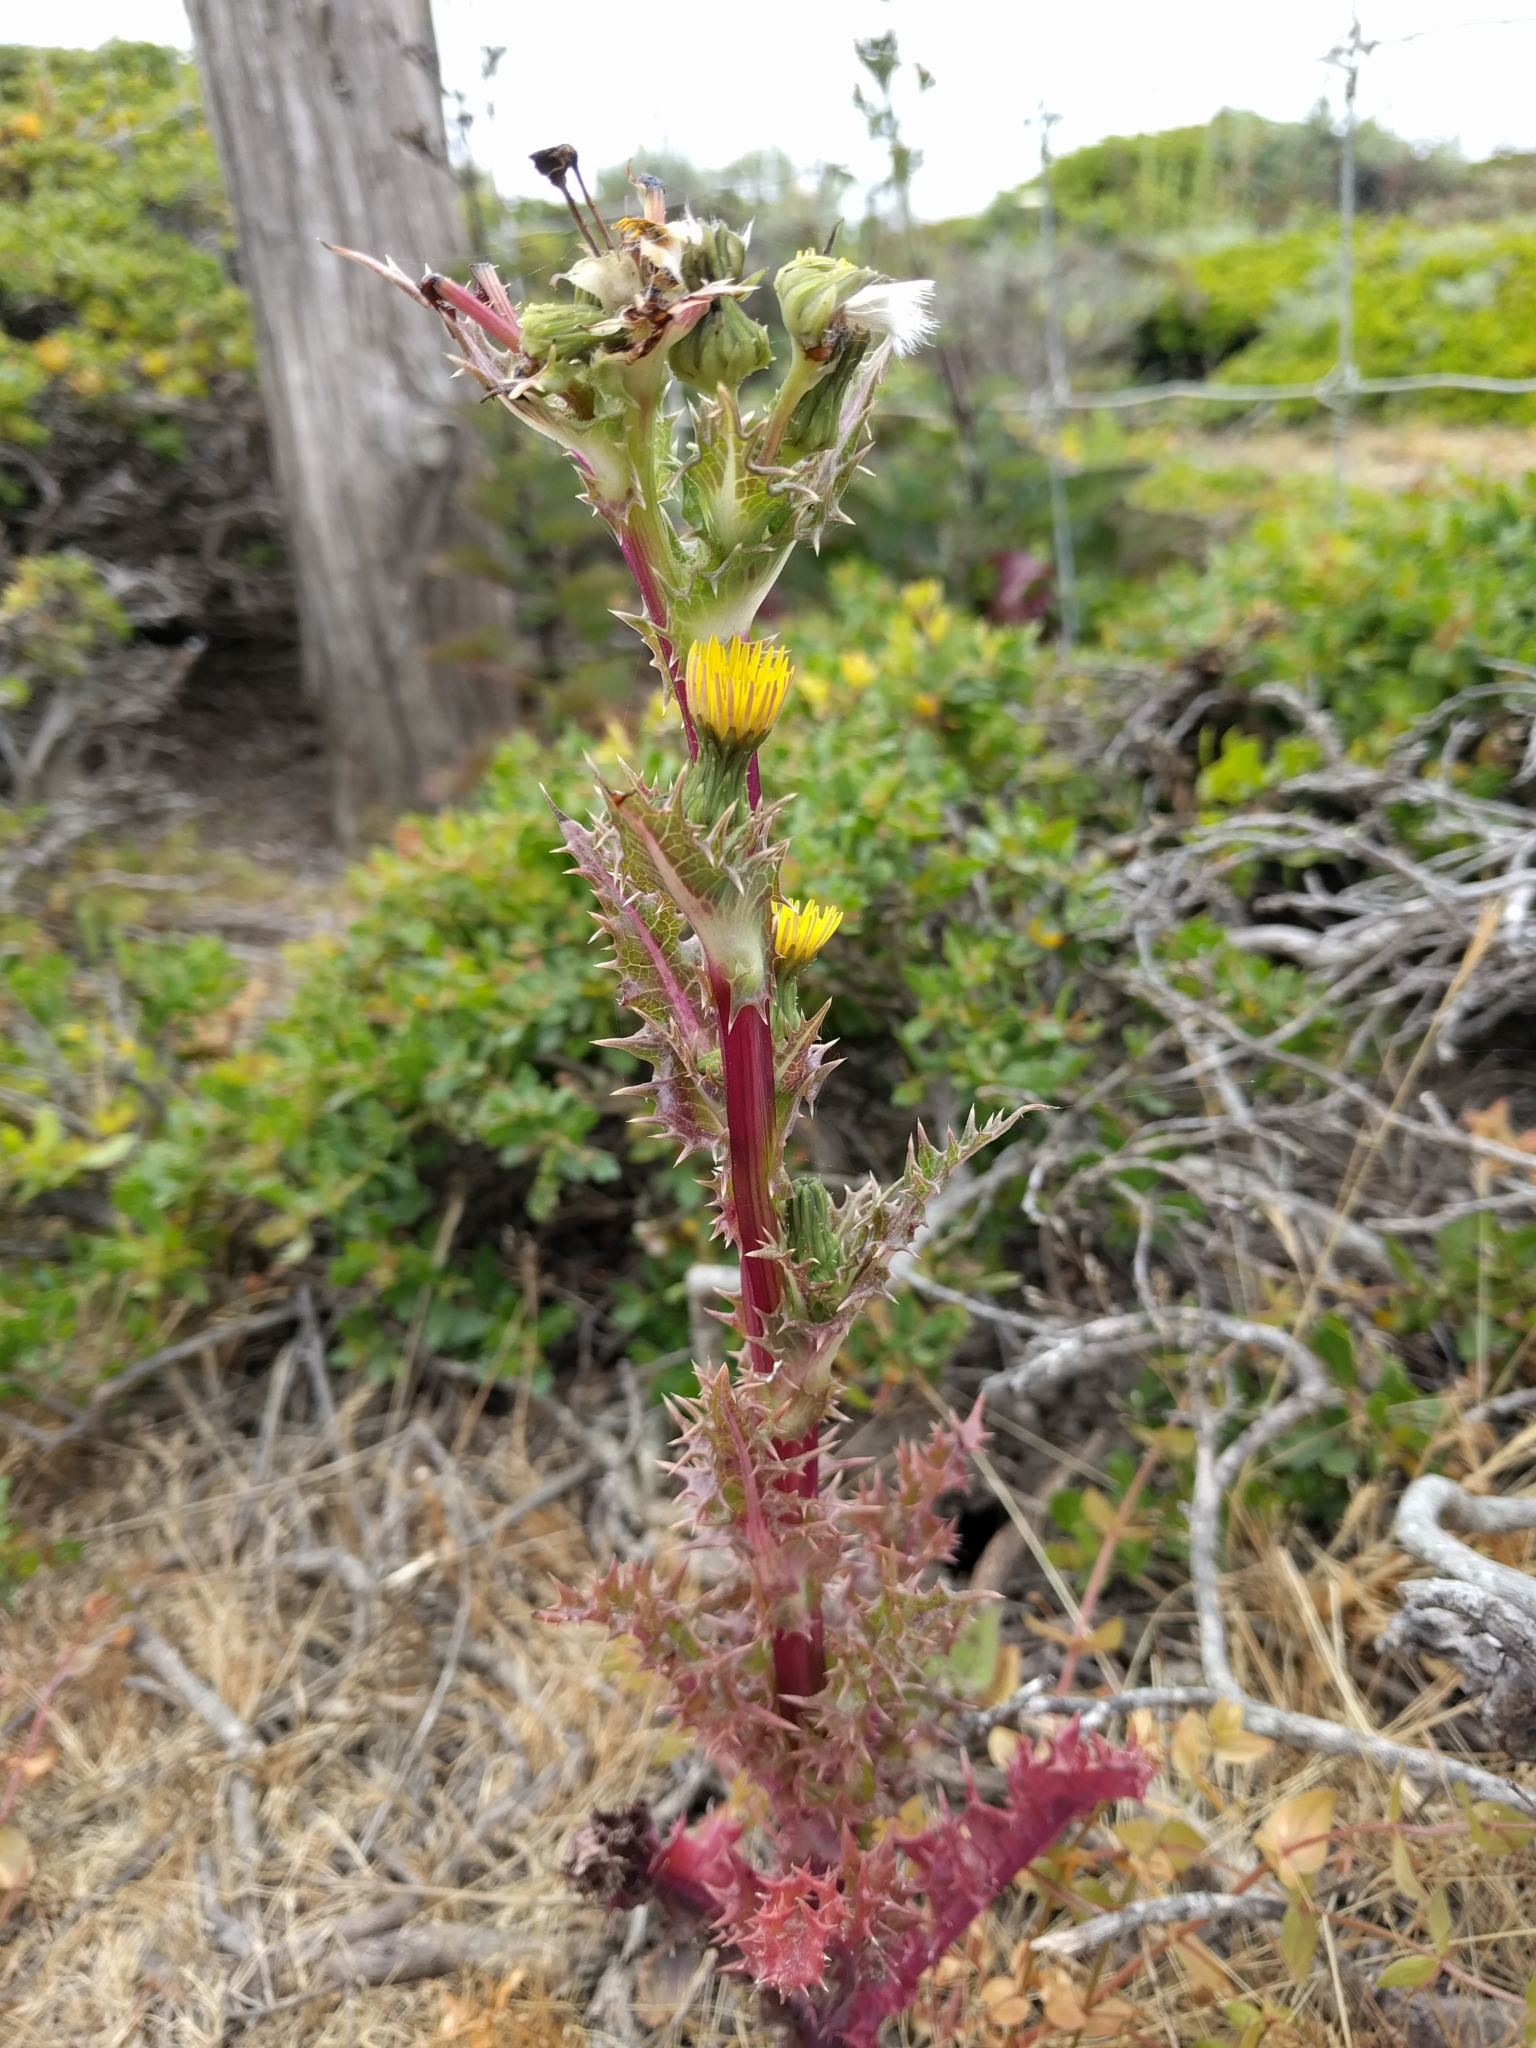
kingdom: Plantae
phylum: Tracheophyta
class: Magnoliopsida
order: Asterales
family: Asteraceae
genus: Sonchus
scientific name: Sonchus asper
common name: Prickly sow-thistle
